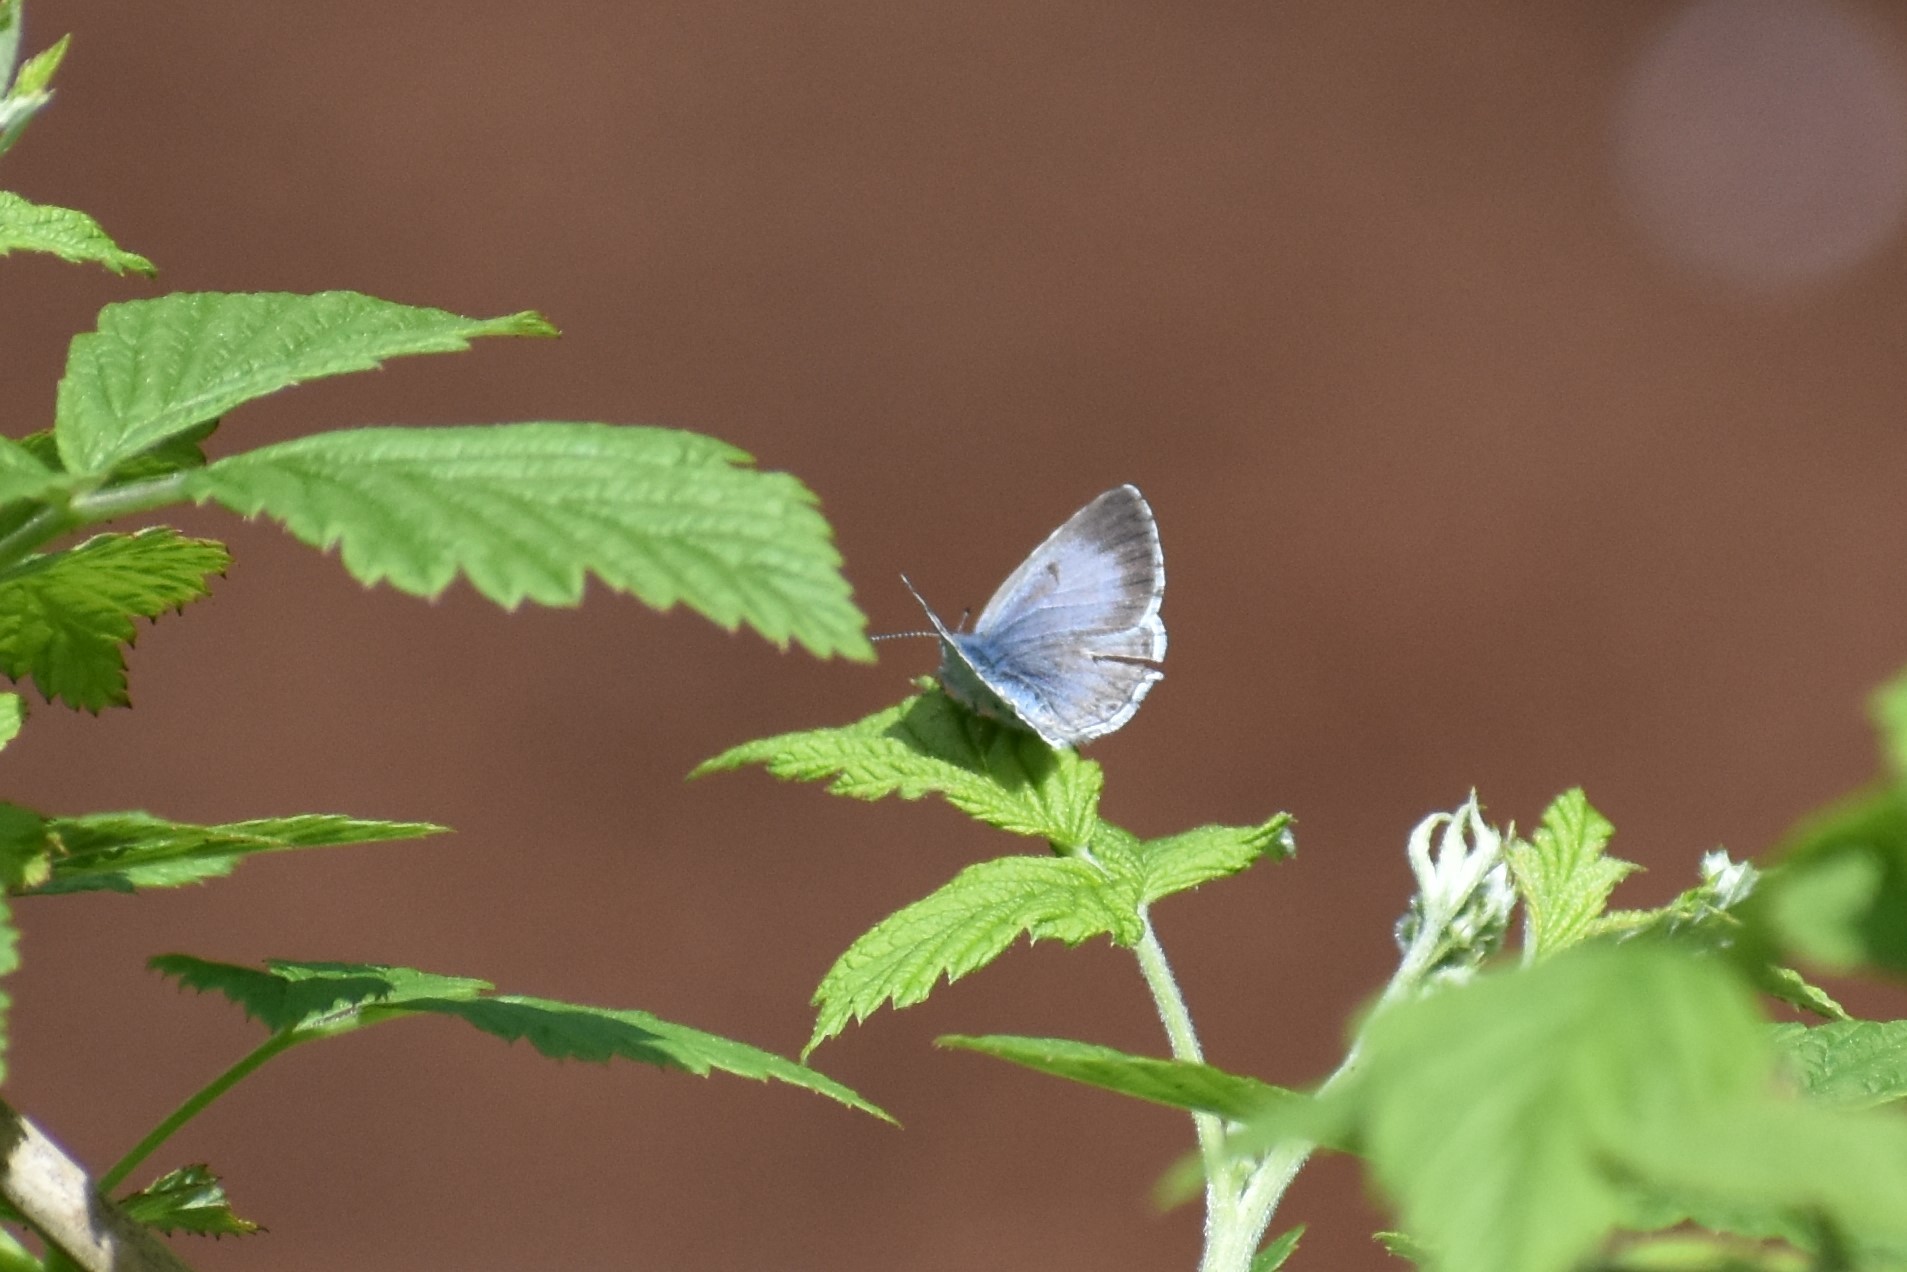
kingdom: Animalia
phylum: Arthropoda
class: Insecta
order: Lepidoptera
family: Lycaenidae
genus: Celastrina
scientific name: Celastrina ladon
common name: Spring azure
